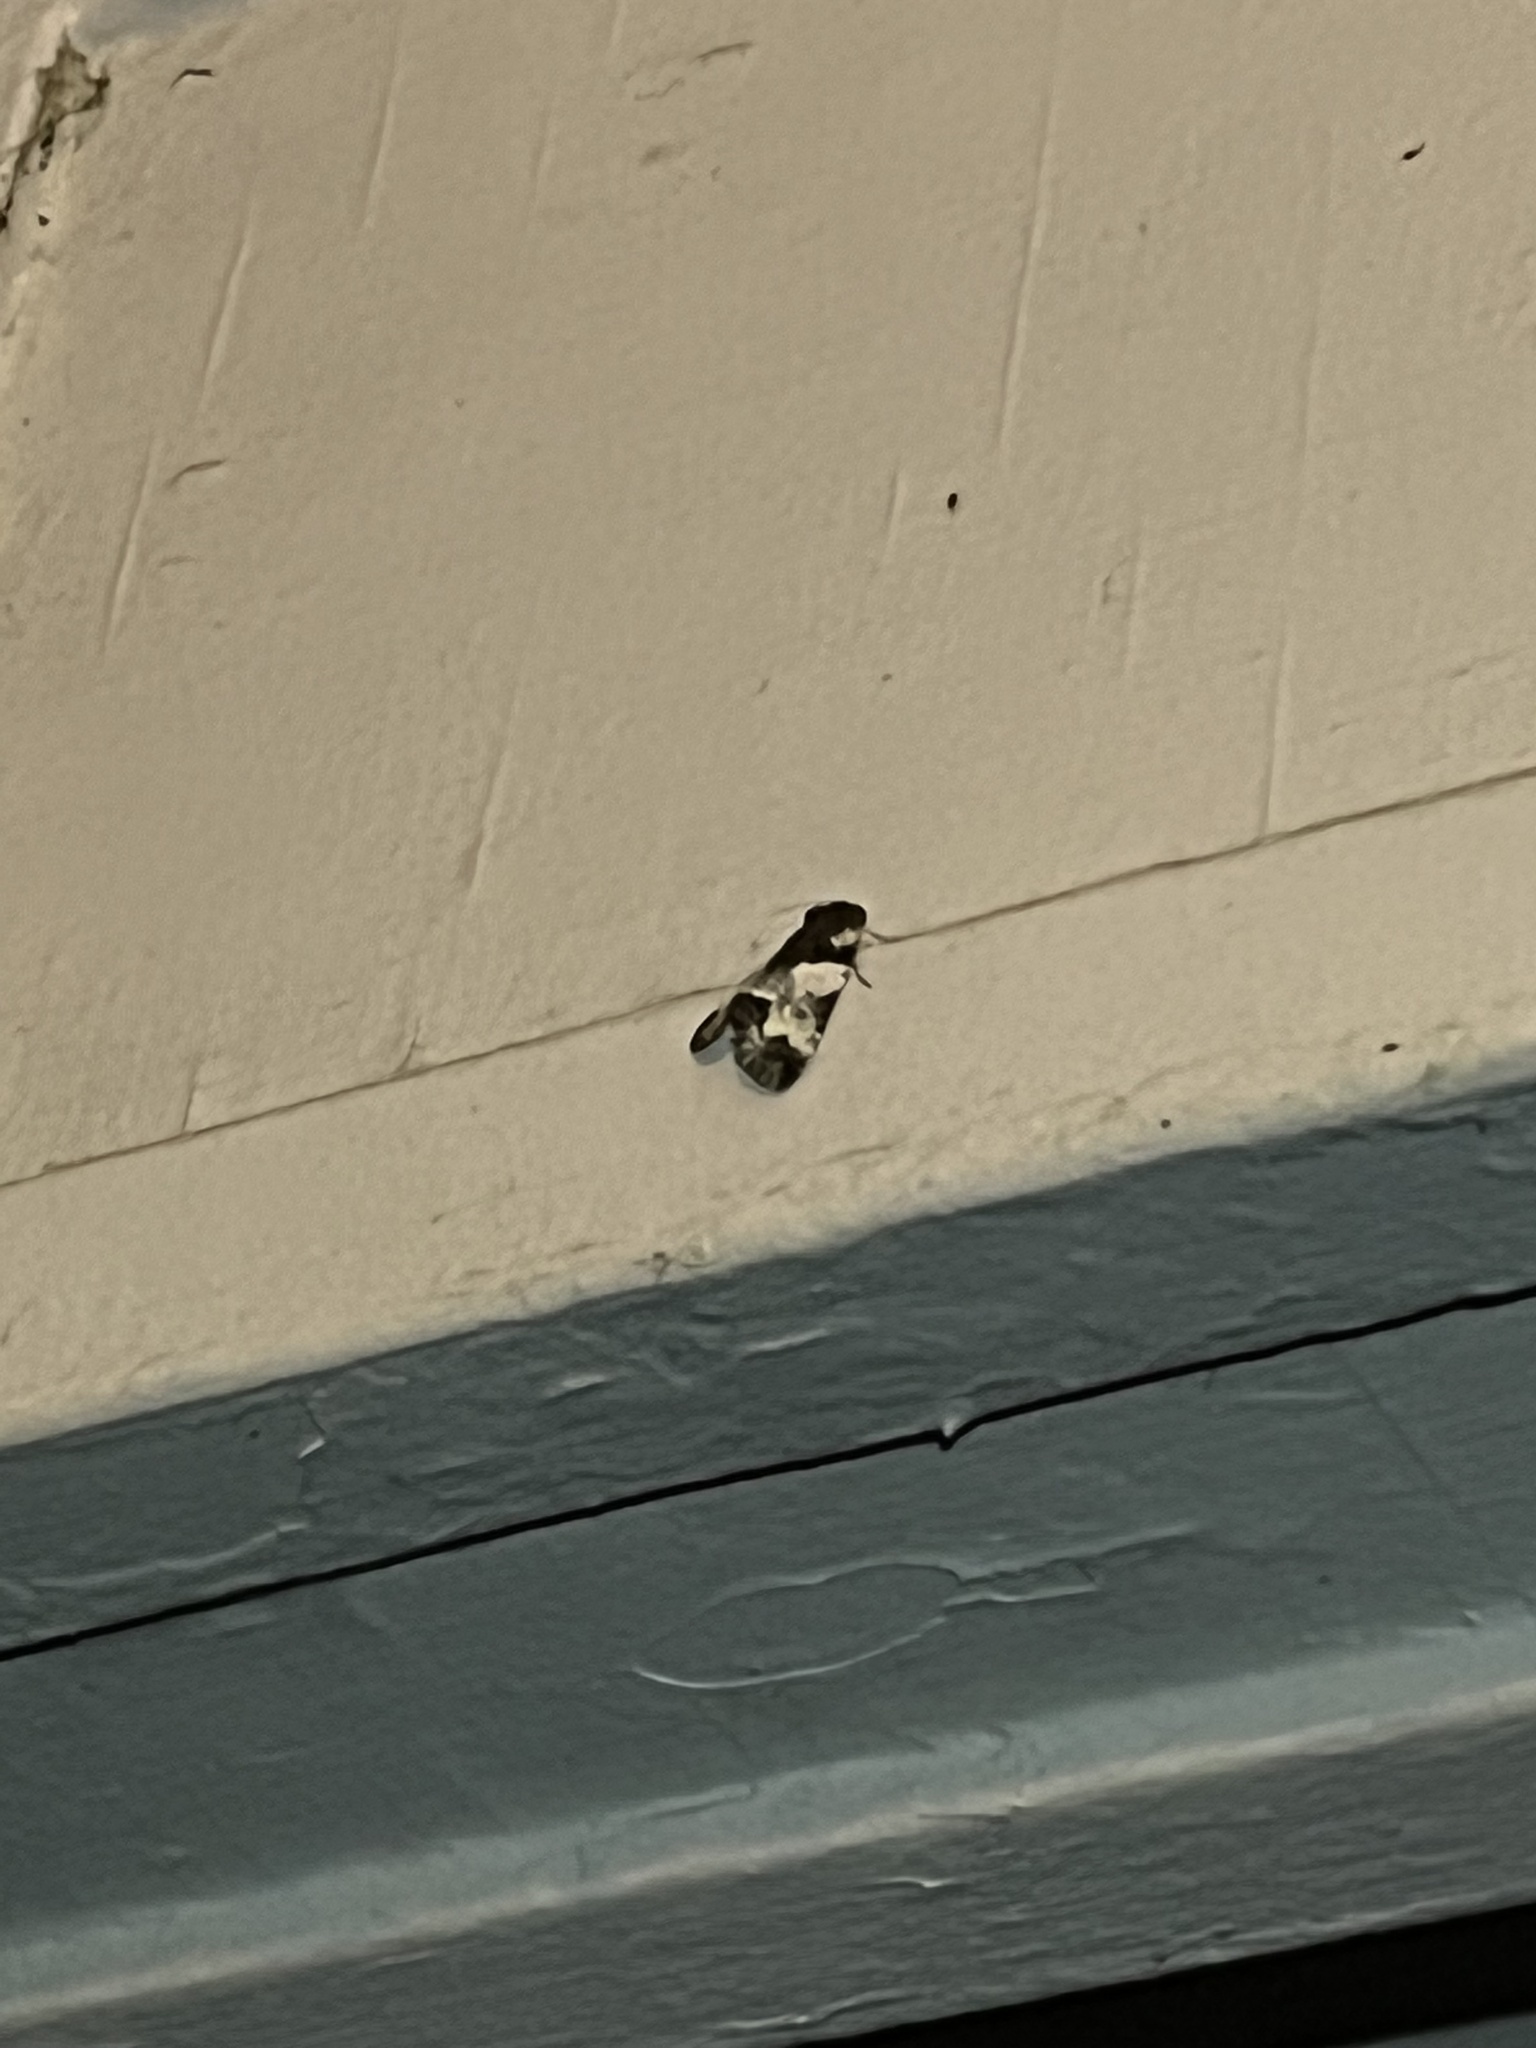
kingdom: Animalia
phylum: Arthropoda
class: Insecta
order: Lepidoptera
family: Noctuidae
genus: Cerma
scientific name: Cerma cerintha
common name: Tufted bird-dropping moth
